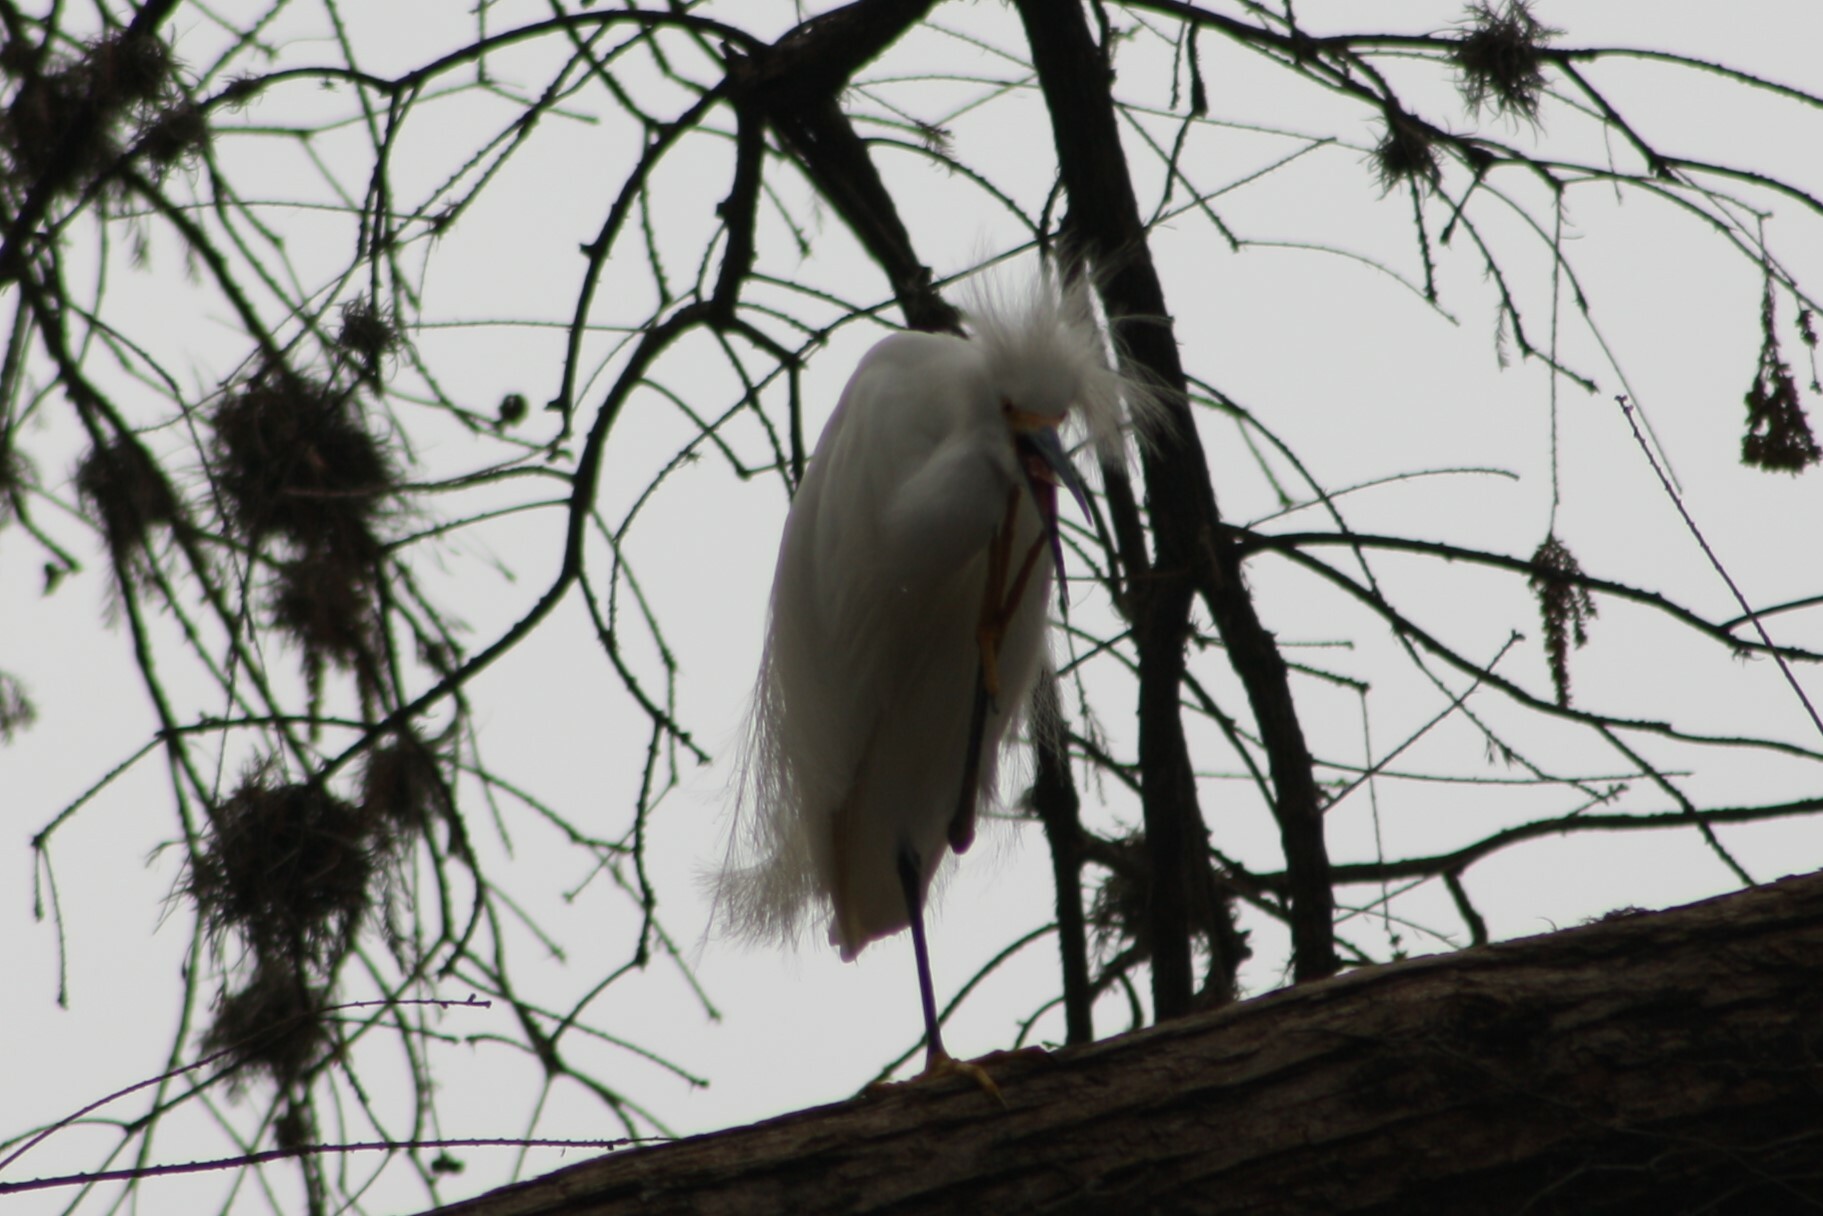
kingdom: Animalia
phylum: Chordata
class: Aves
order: Pelecaniformes
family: Ardeidae
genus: Egretta
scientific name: Egretta thula
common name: Snowy egret
